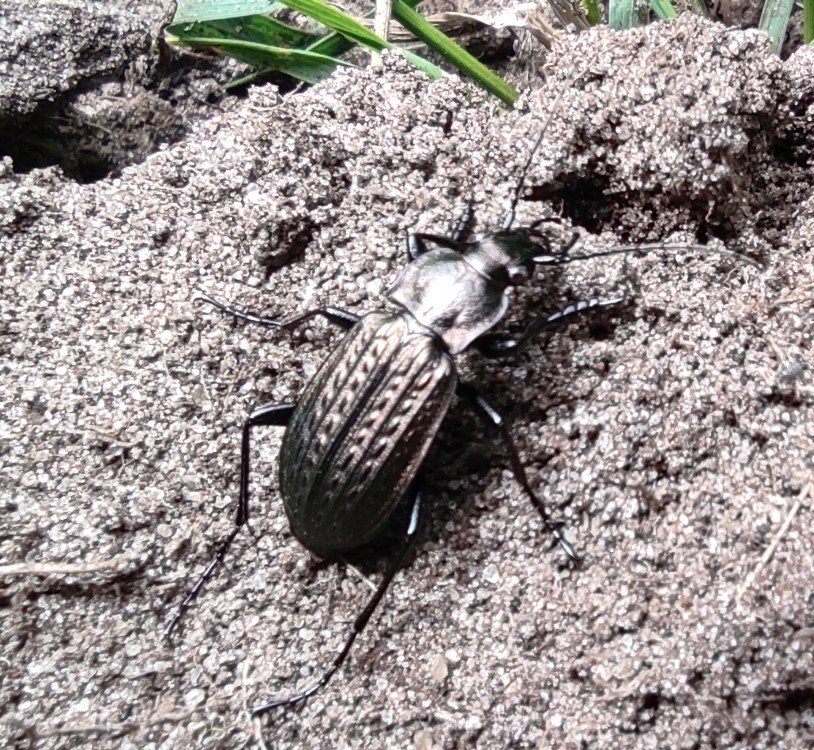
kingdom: Animalia
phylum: Arthropoda
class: Insecta
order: Coleoptera
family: Carabidae
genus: Carabus
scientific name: Carabus granulatus
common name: Granulate ground beetle
